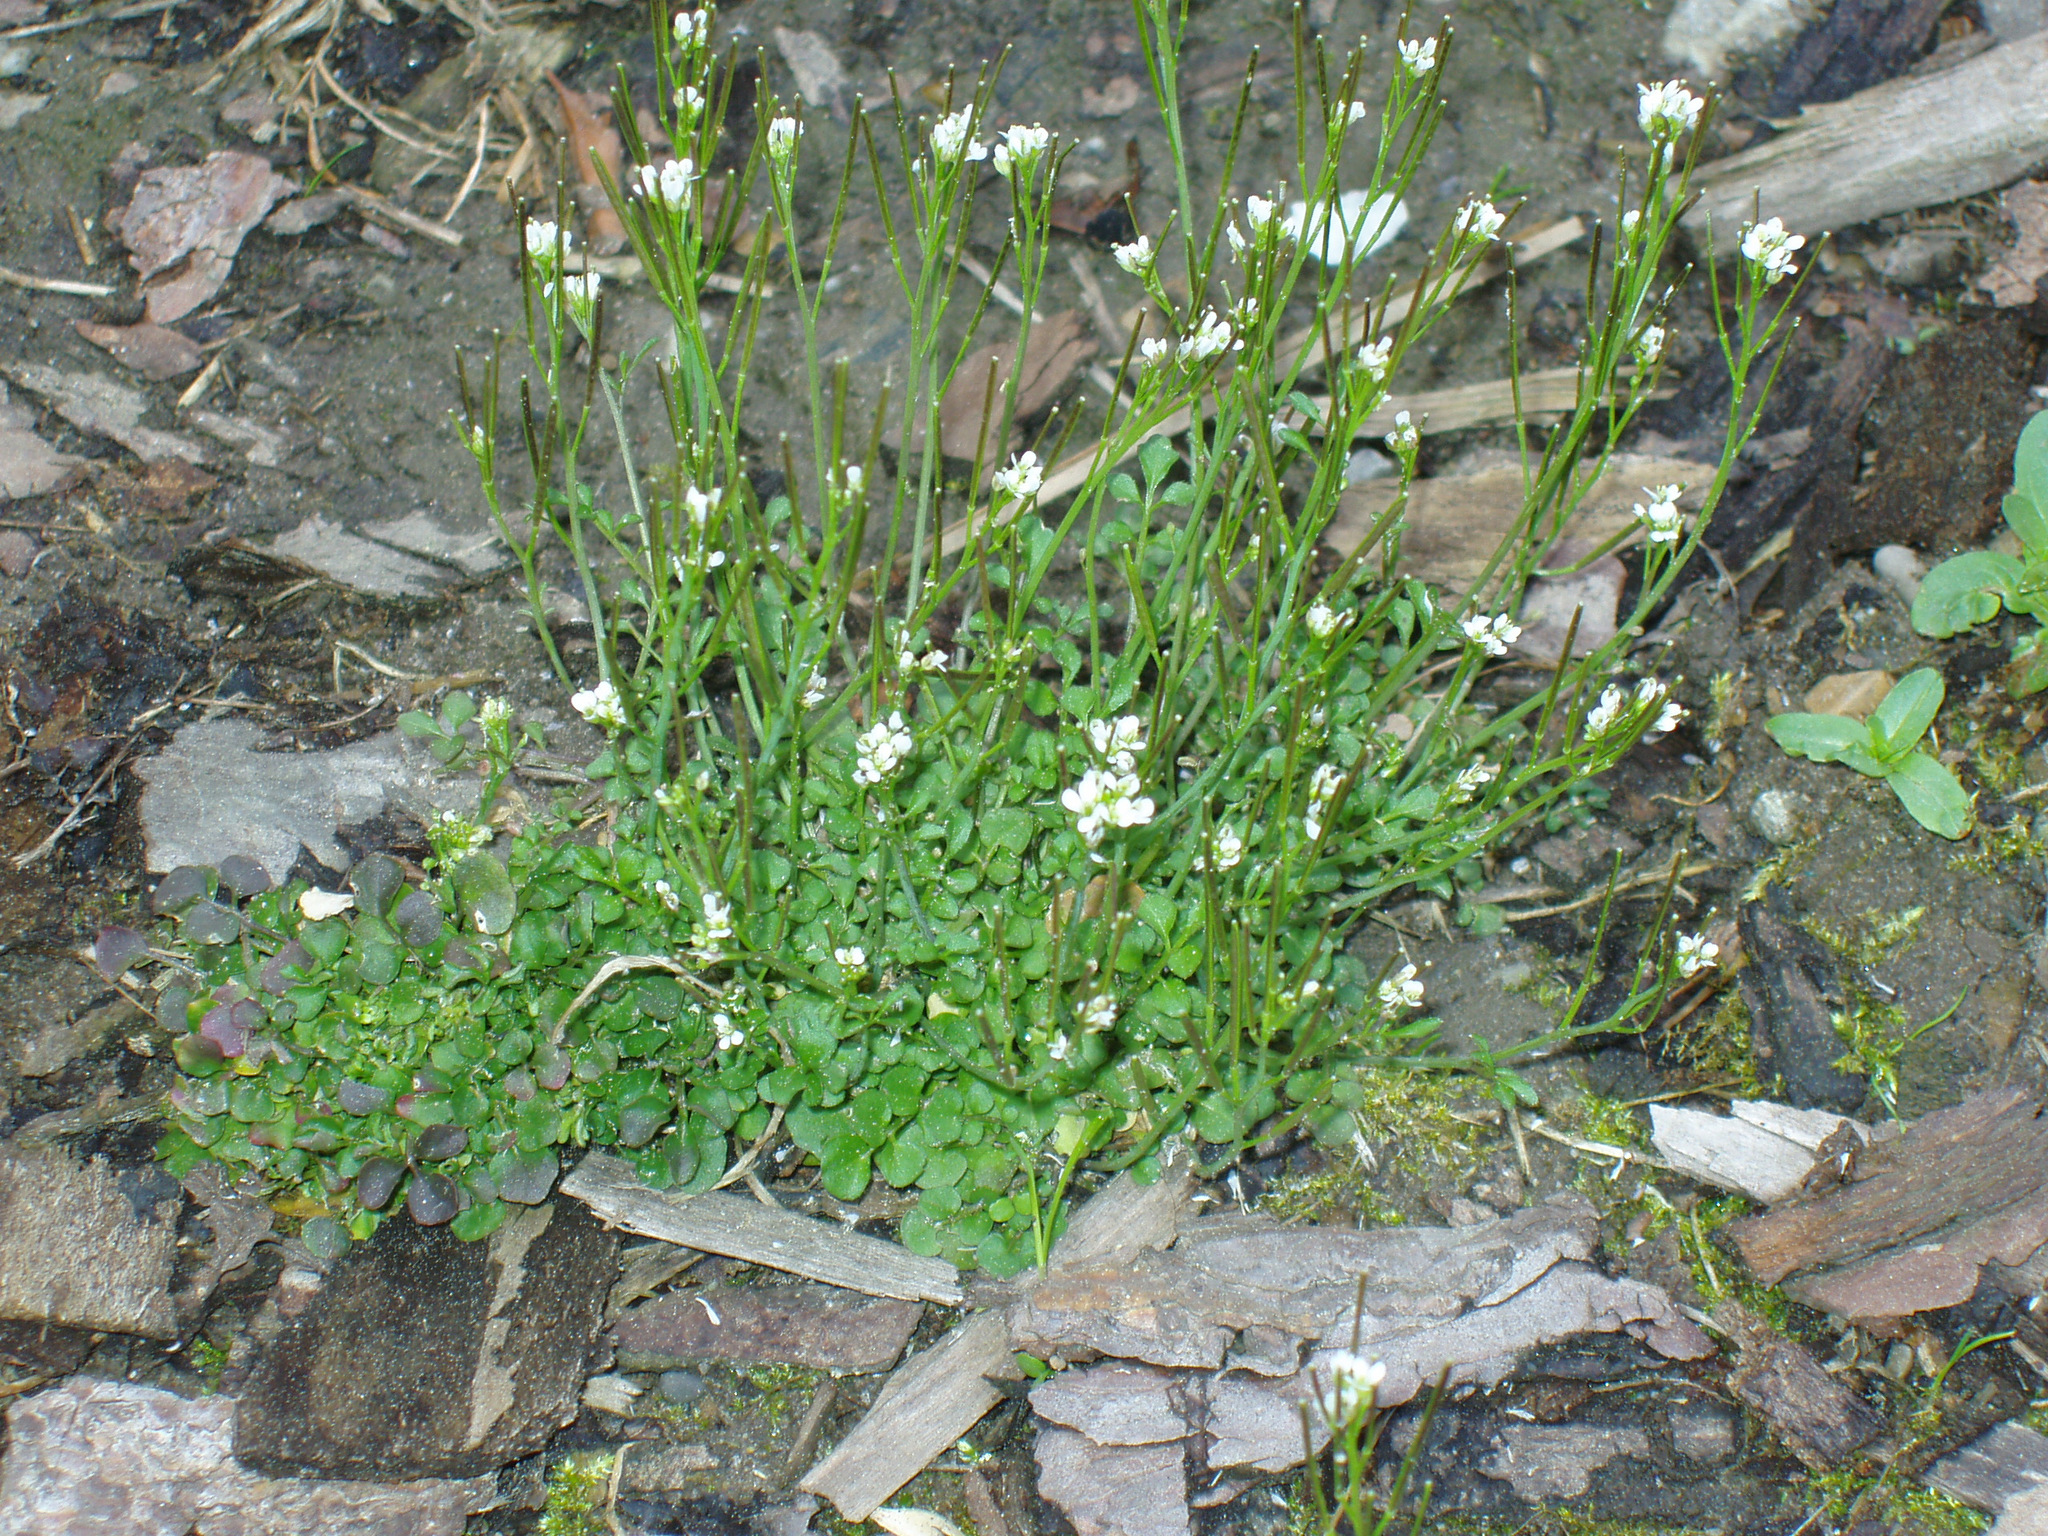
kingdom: Plantae
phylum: Tracheophyta
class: Magnoliopsida
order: Brassicales
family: Brassicaceae
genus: Cardamine
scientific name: Cardamine hirsuta
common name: Hairy bittercress
